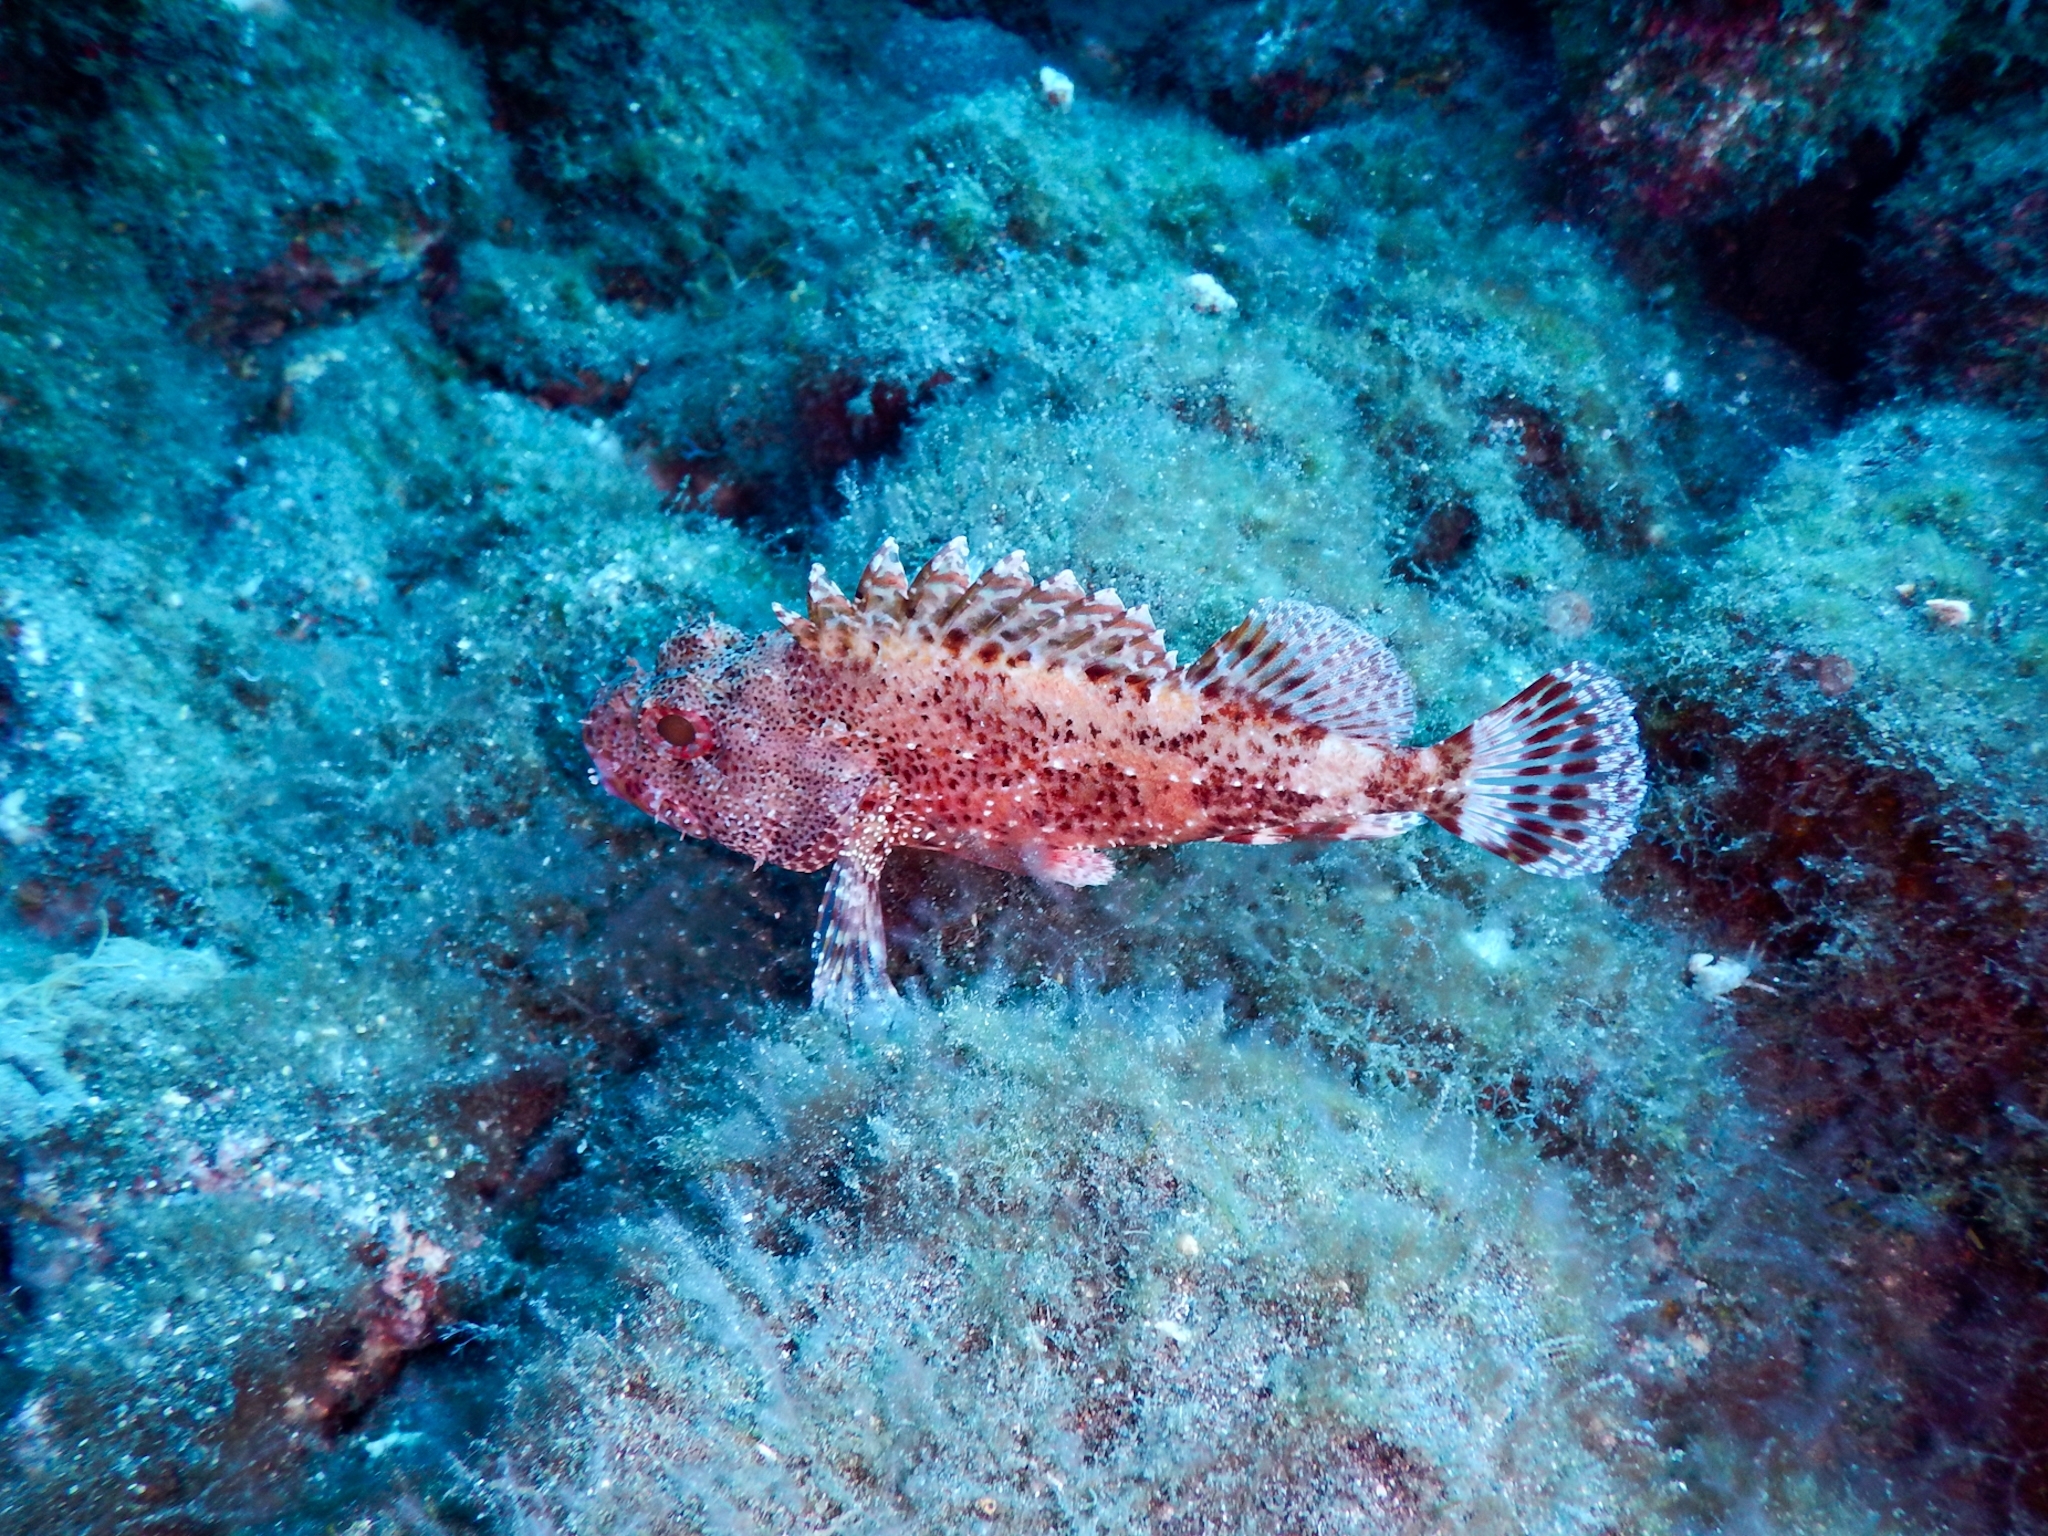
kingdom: Animalia
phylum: Chordata
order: Scorpaeniformes
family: Scorpaenidae
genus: Scorpaena
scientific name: Scorpaena maderensis
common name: Madeira rockfish
